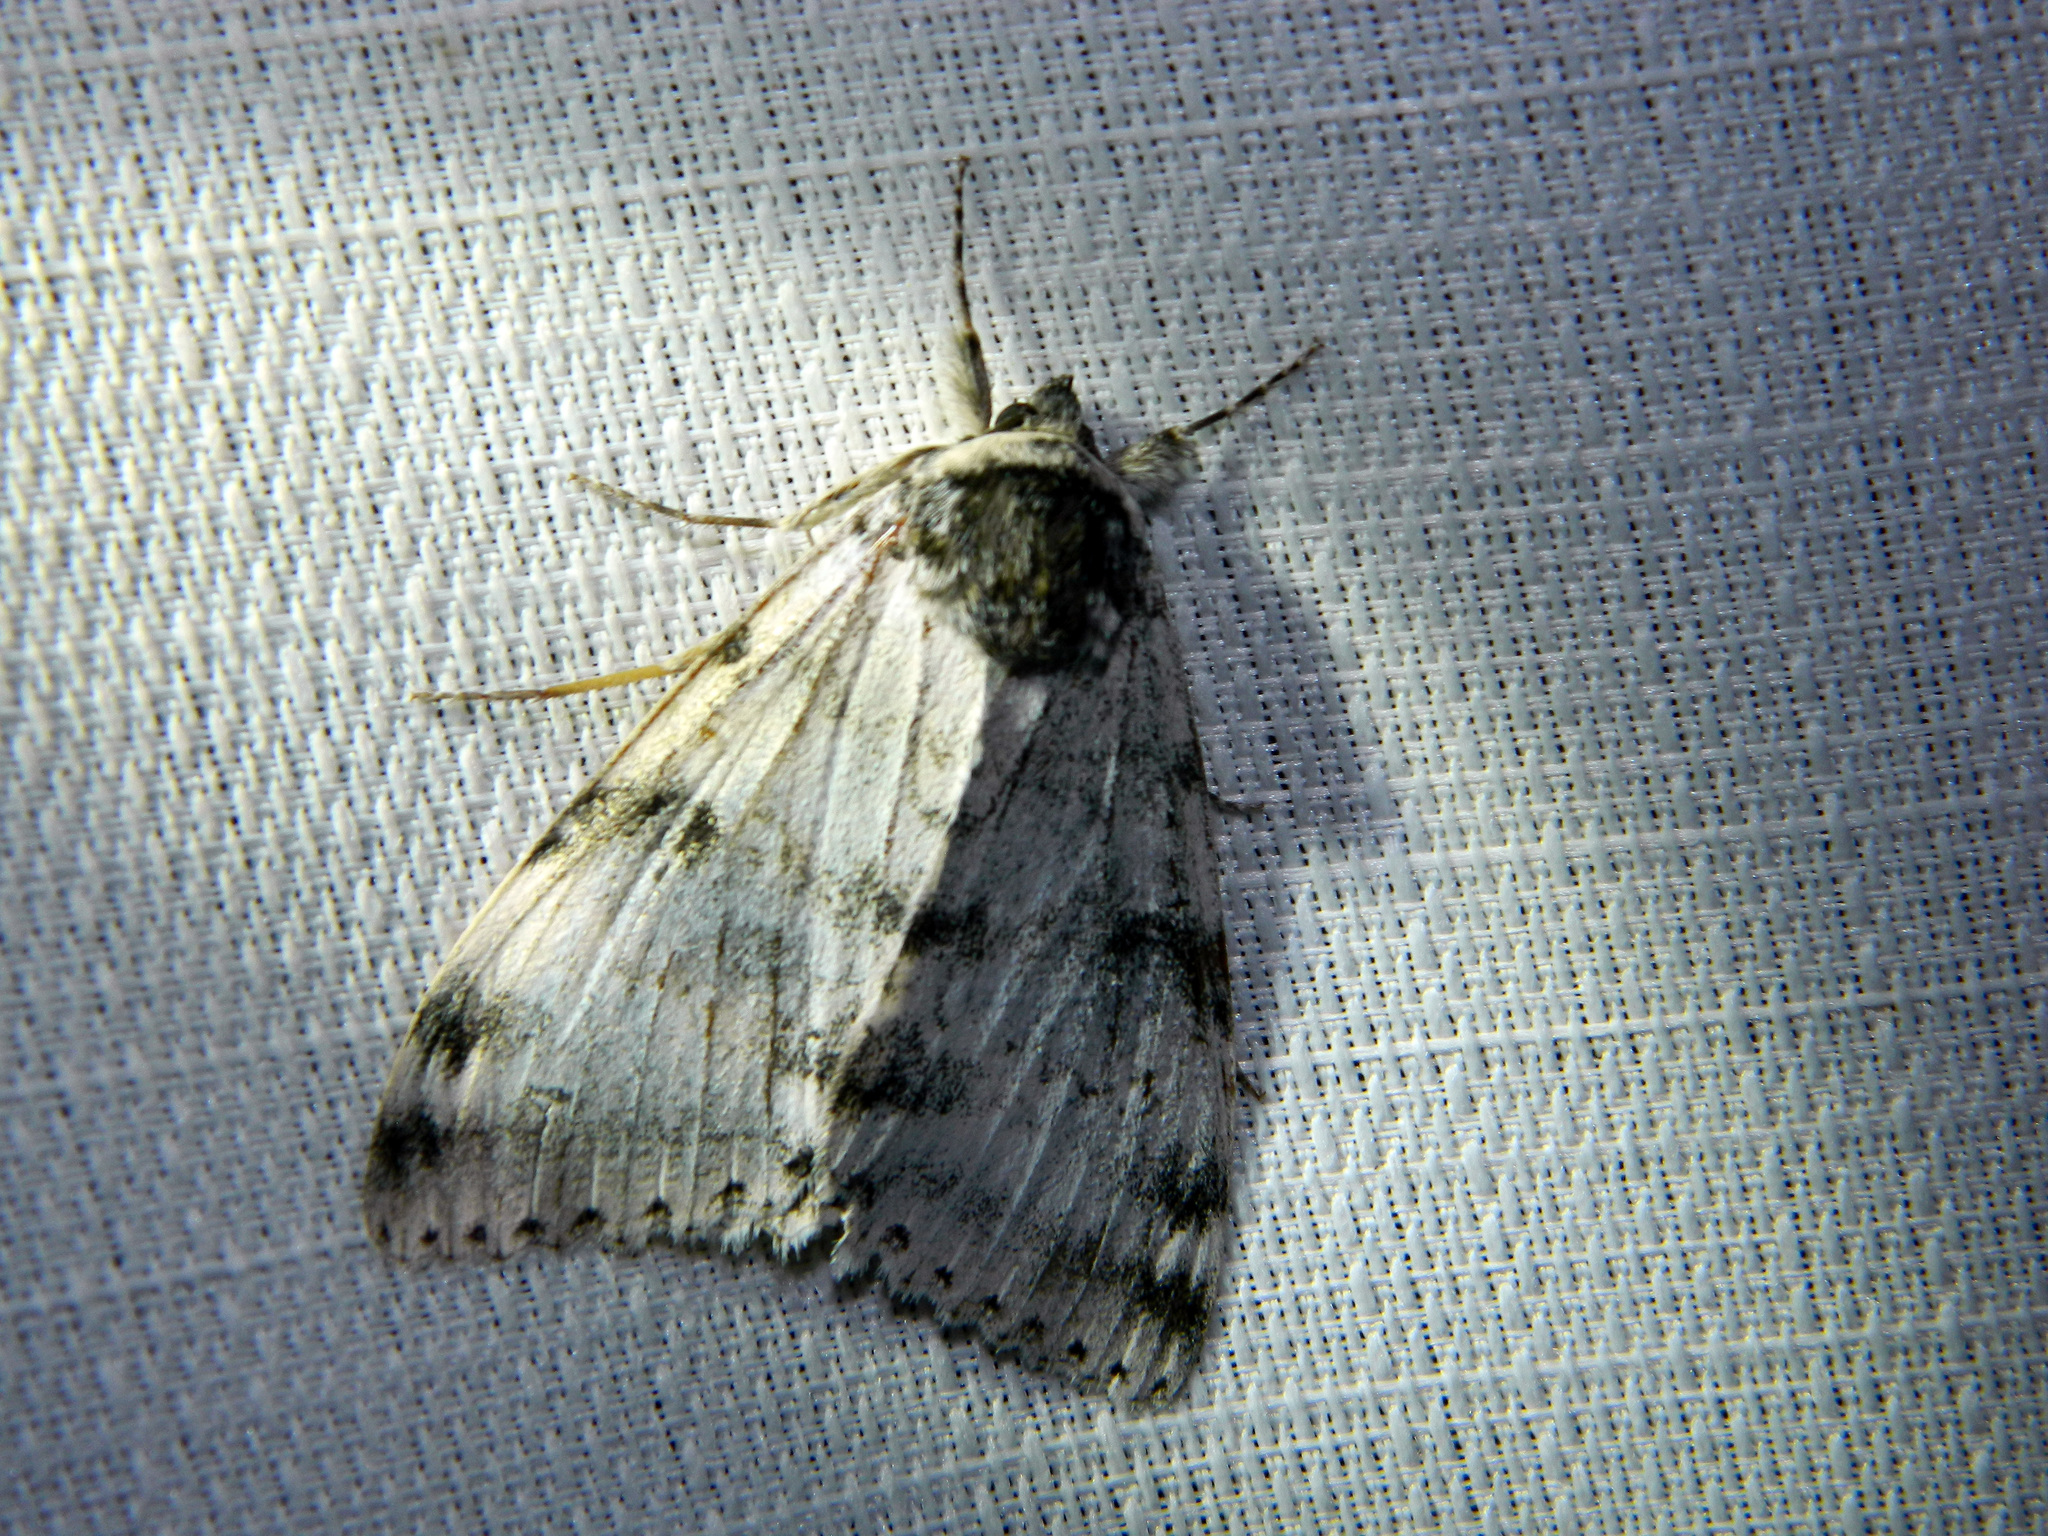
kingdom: Animalia
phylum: Arthropoda
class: Insecta
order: Lepidoptera
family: Erebidae
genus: Catocala
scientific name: Catocala relicta
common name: White underwing
